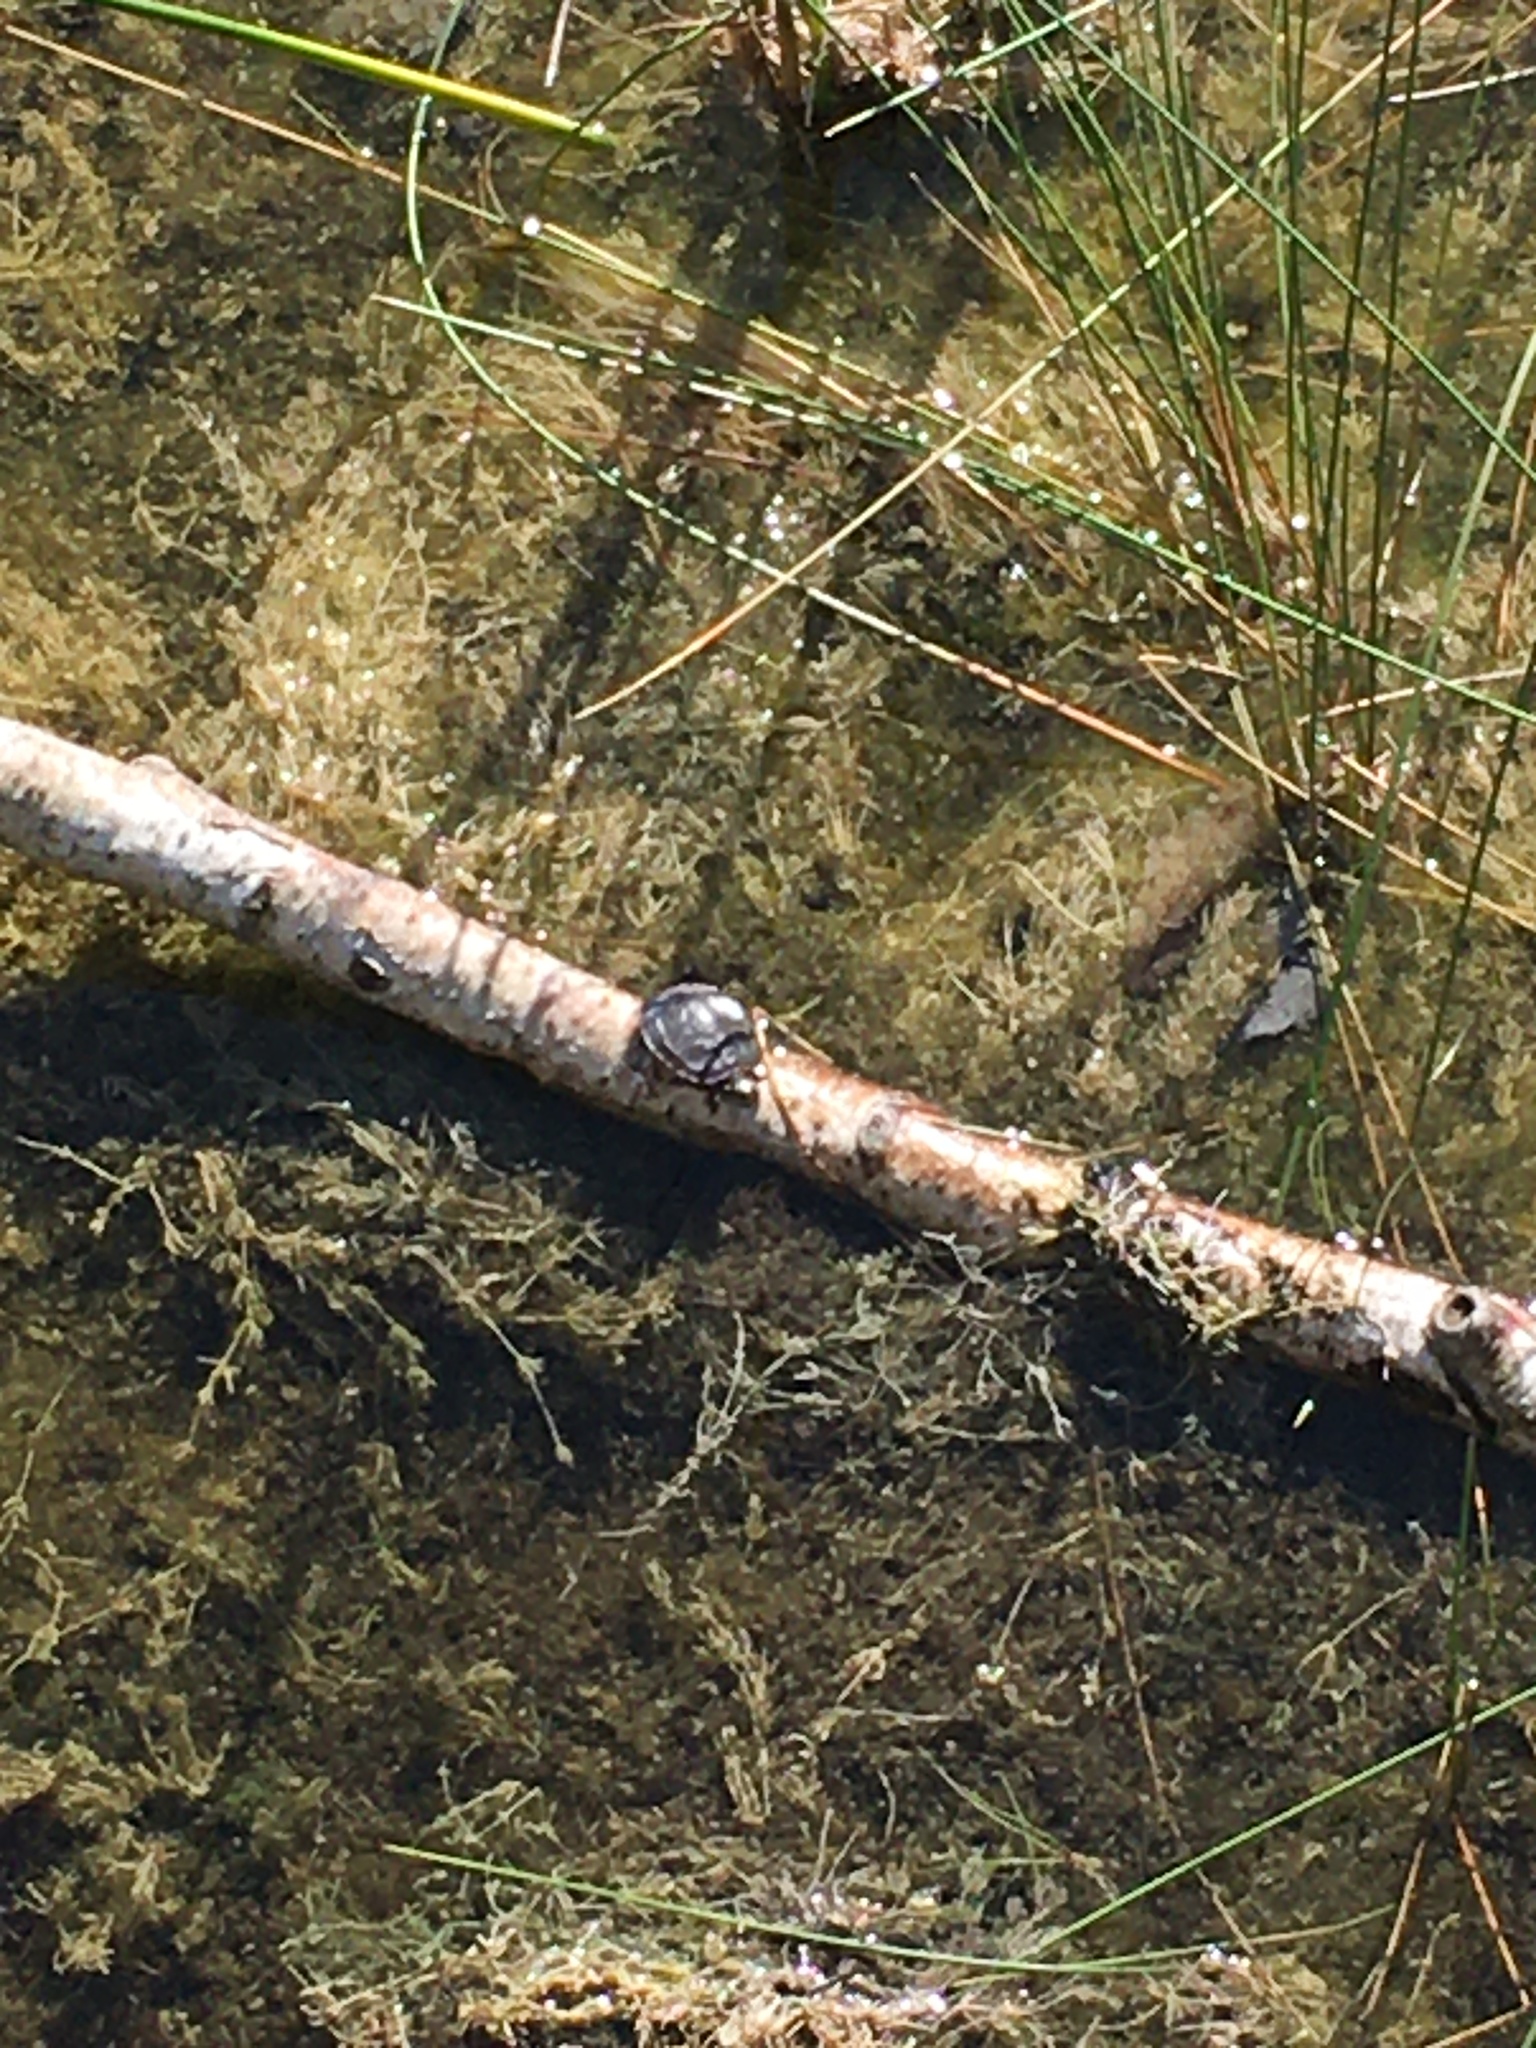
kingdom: Animalia
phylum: Chordata
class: Testudines
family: Emydidae
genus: Chrysemys
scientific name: Chrysemys picta
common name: Painted turtle
